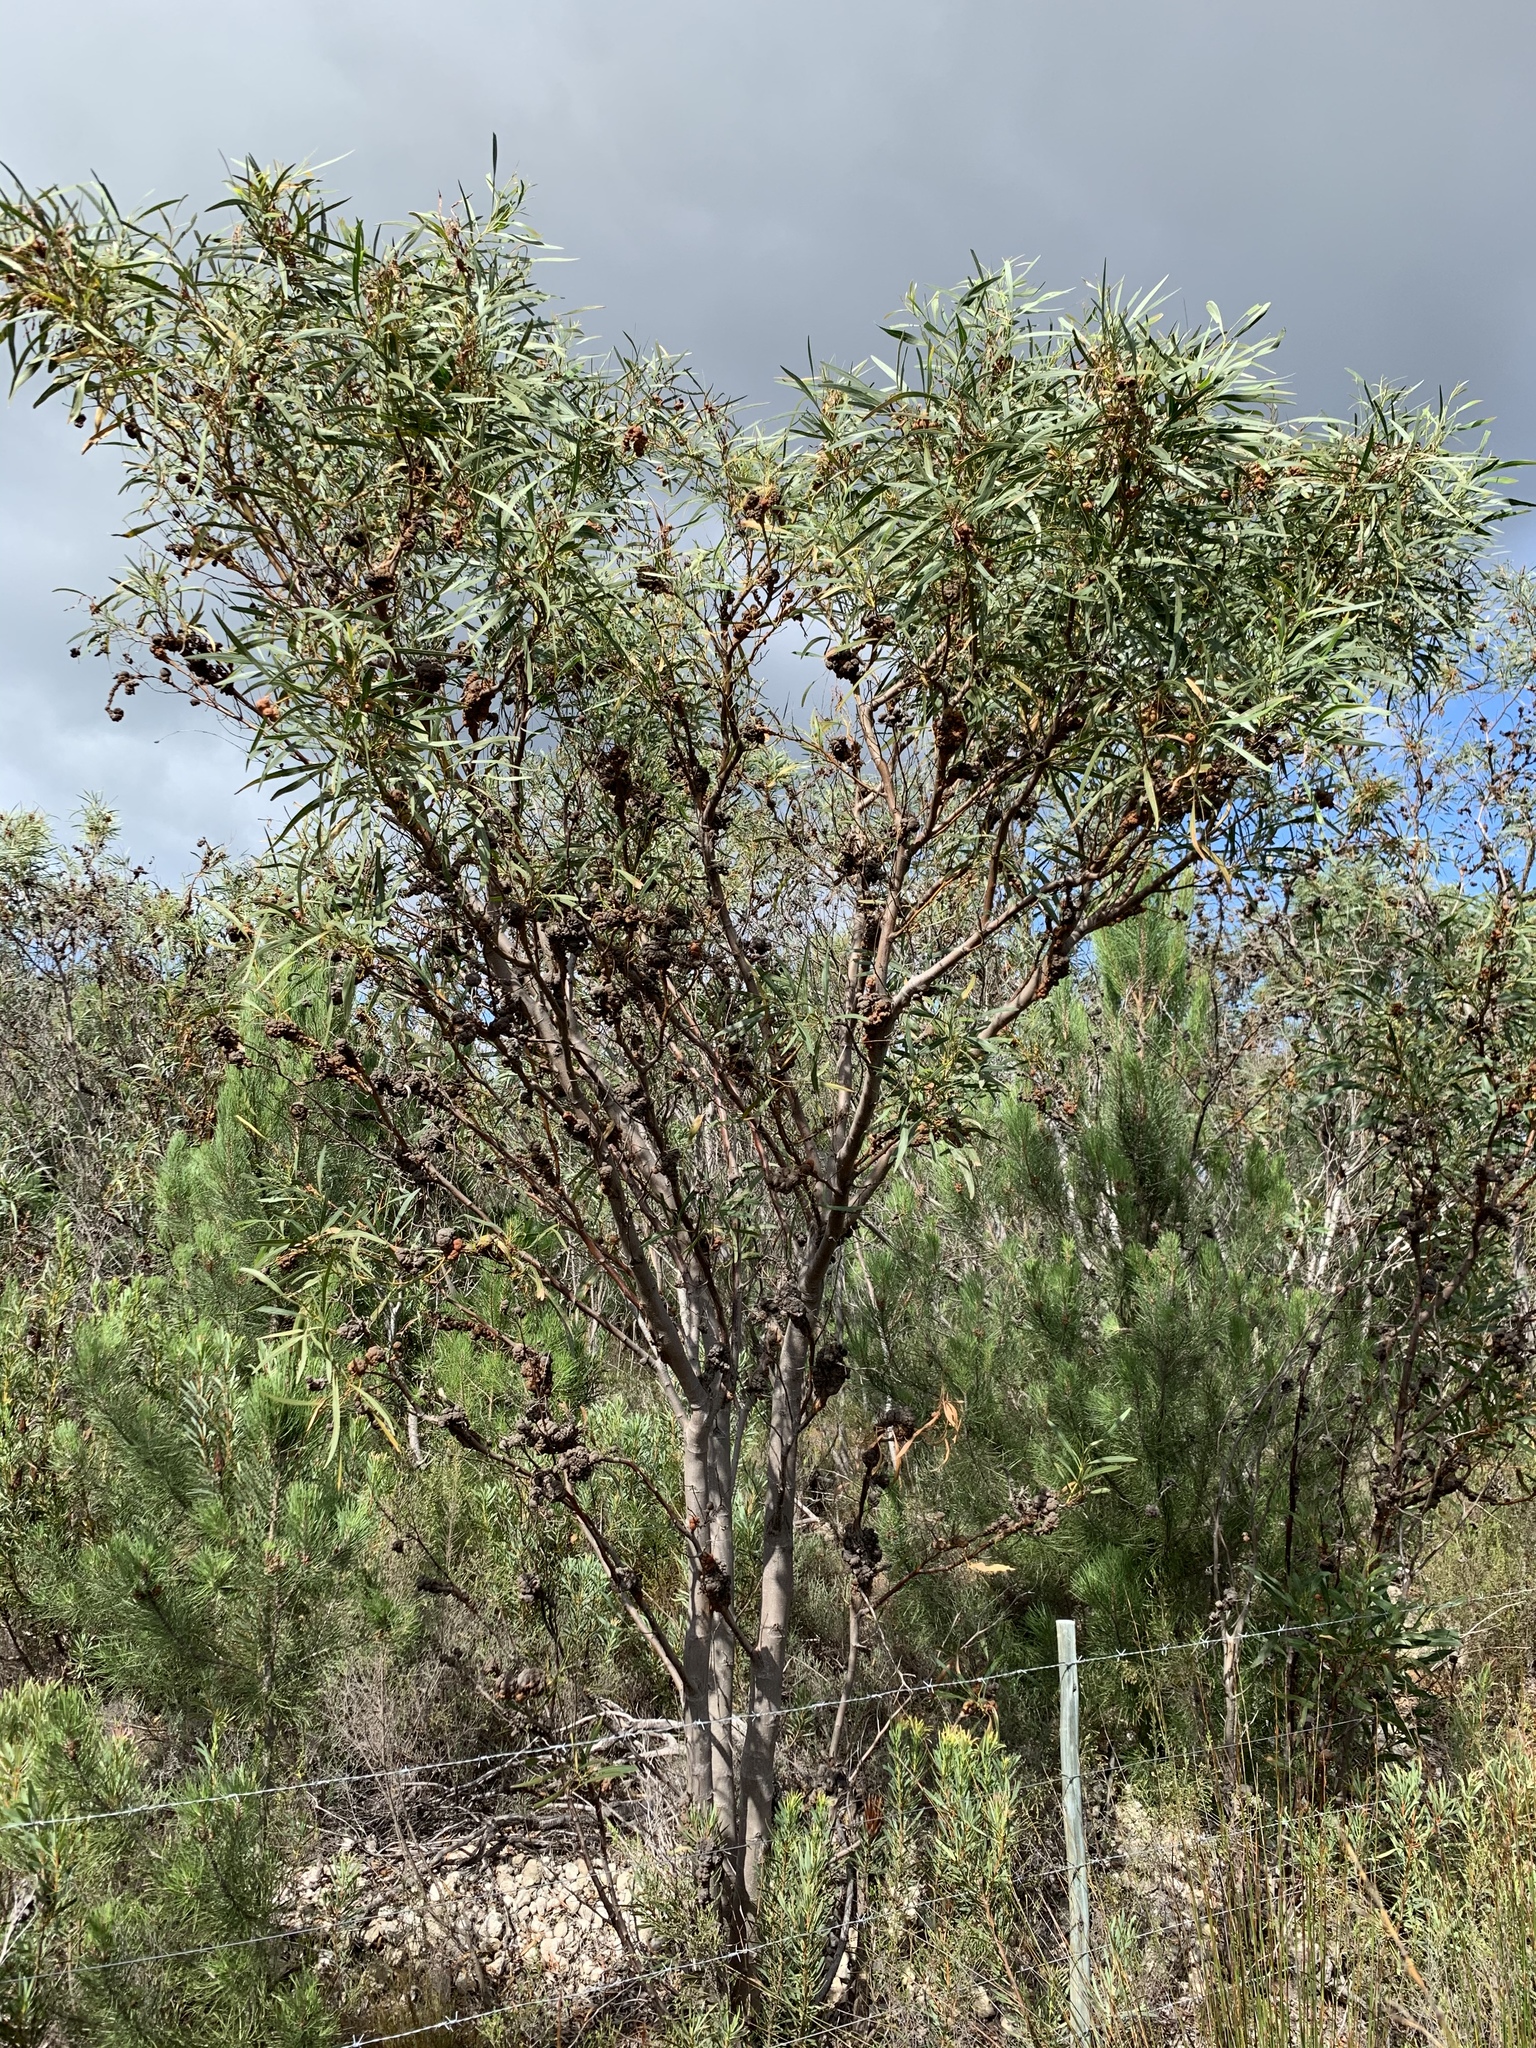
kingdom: Plantae
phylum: Tracheophyta
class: Magnoliopsida
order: Fabales
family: Fabaceae
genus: Acacia
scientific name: Acacia saligna
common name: Orange wattle
